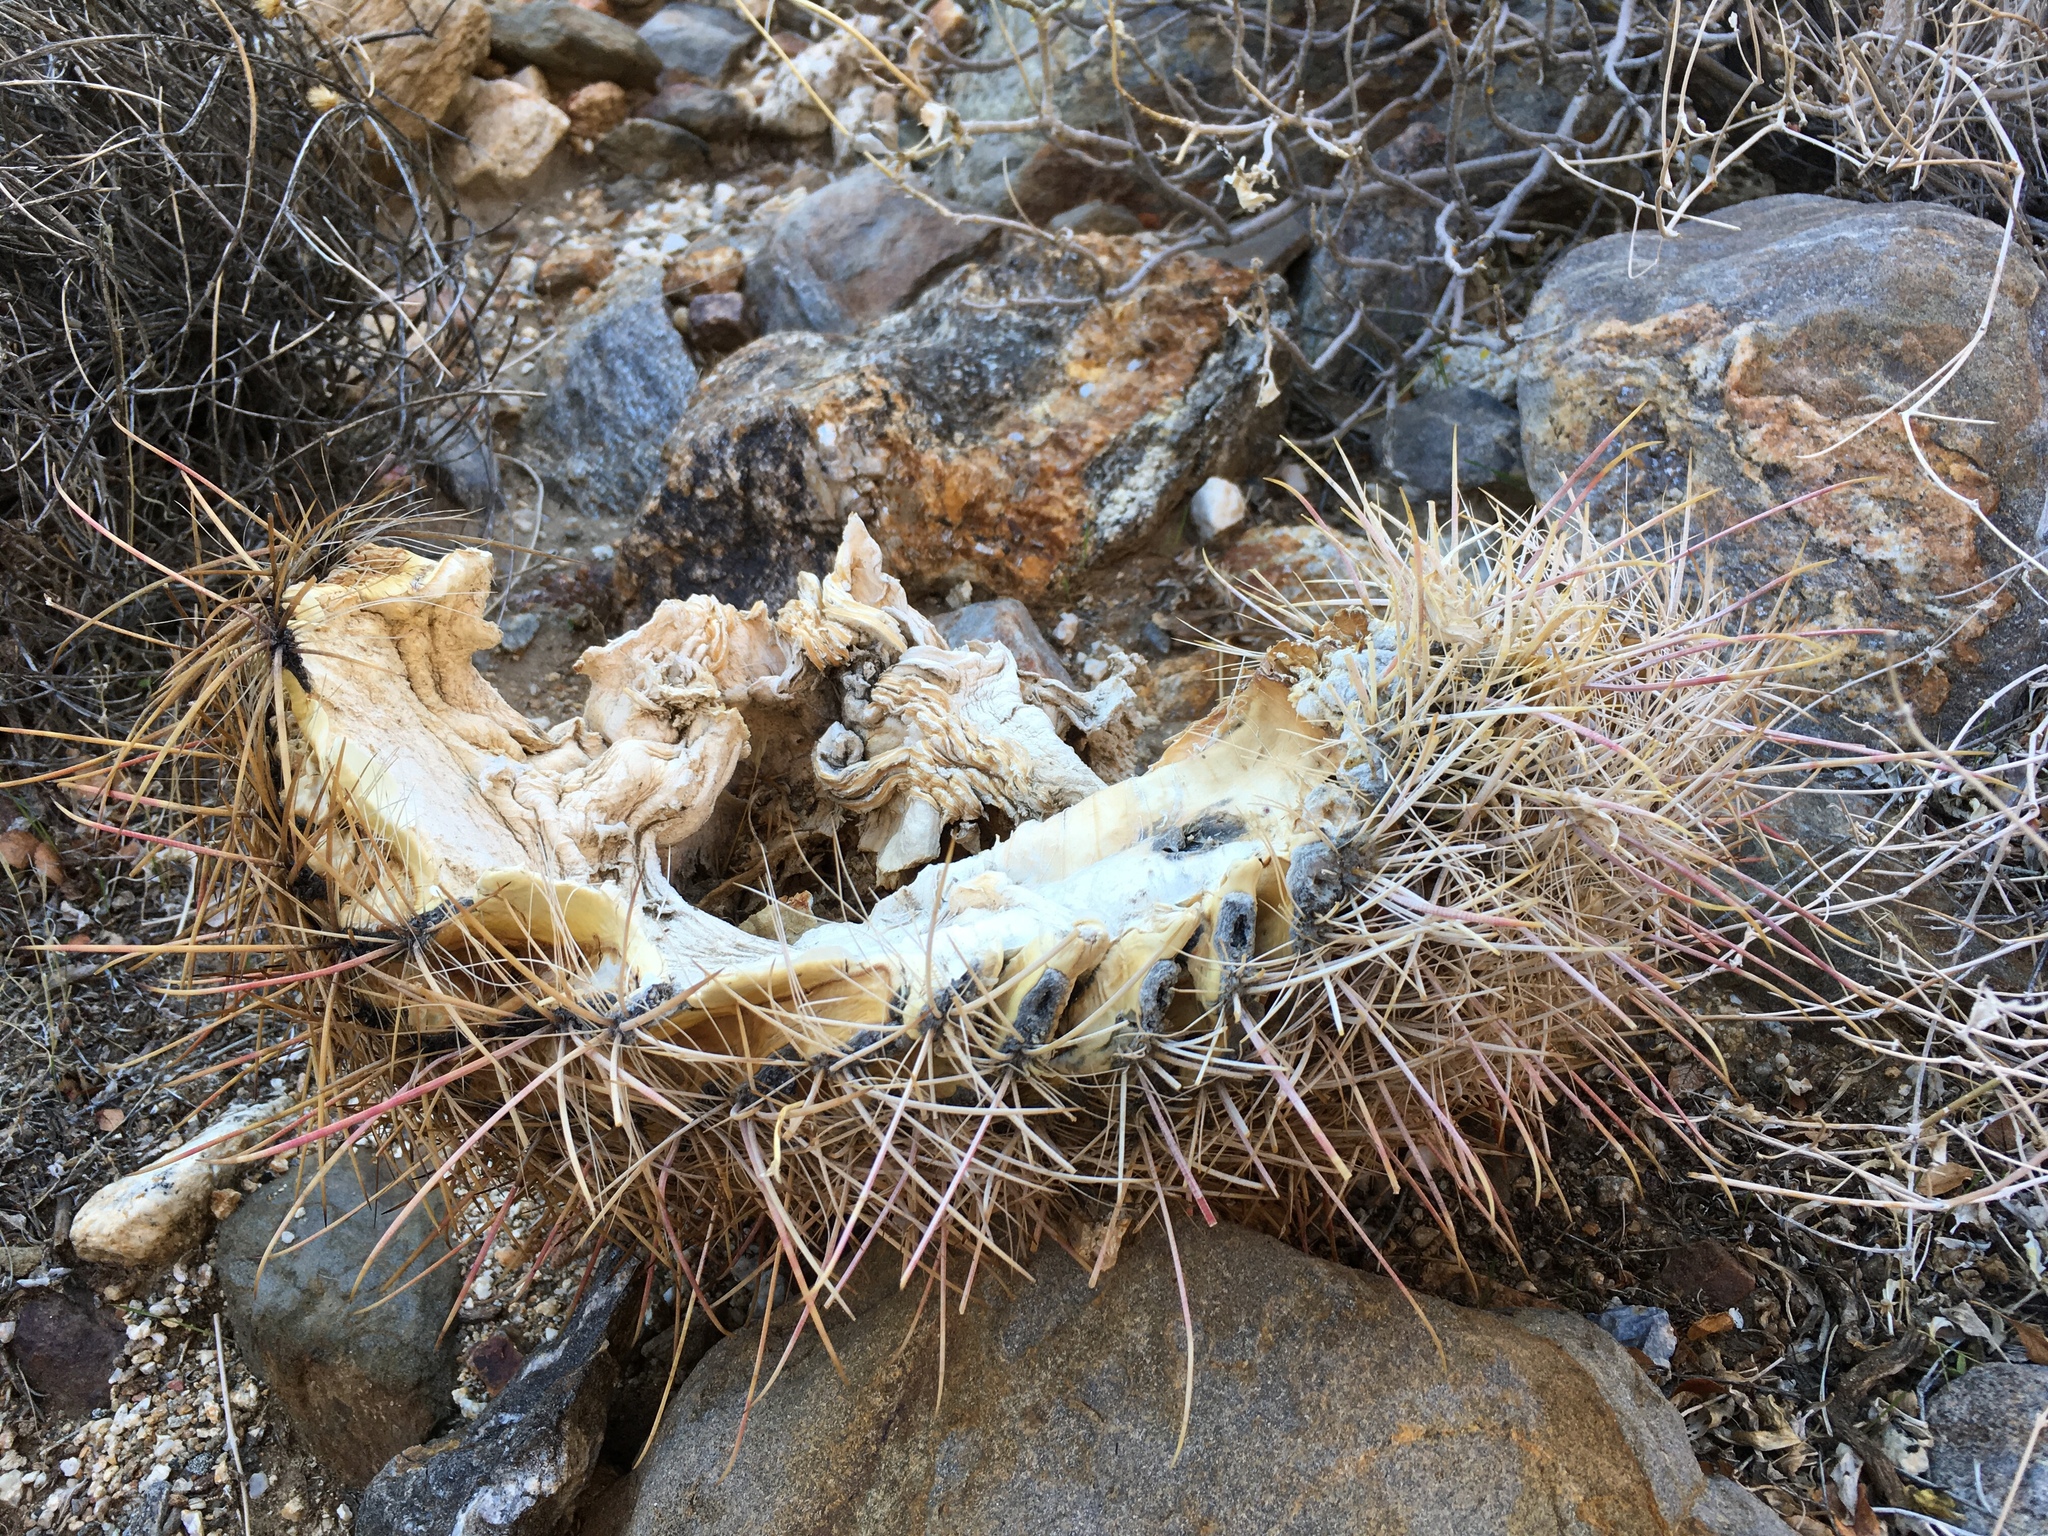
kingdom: Plantae
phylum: Tracheophyta
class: Magnoliopsida
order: Caryophyllales
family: Cactaceae
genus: Ferocactus
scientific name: Ferocactus cylindraceus
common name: California barrel cactus
